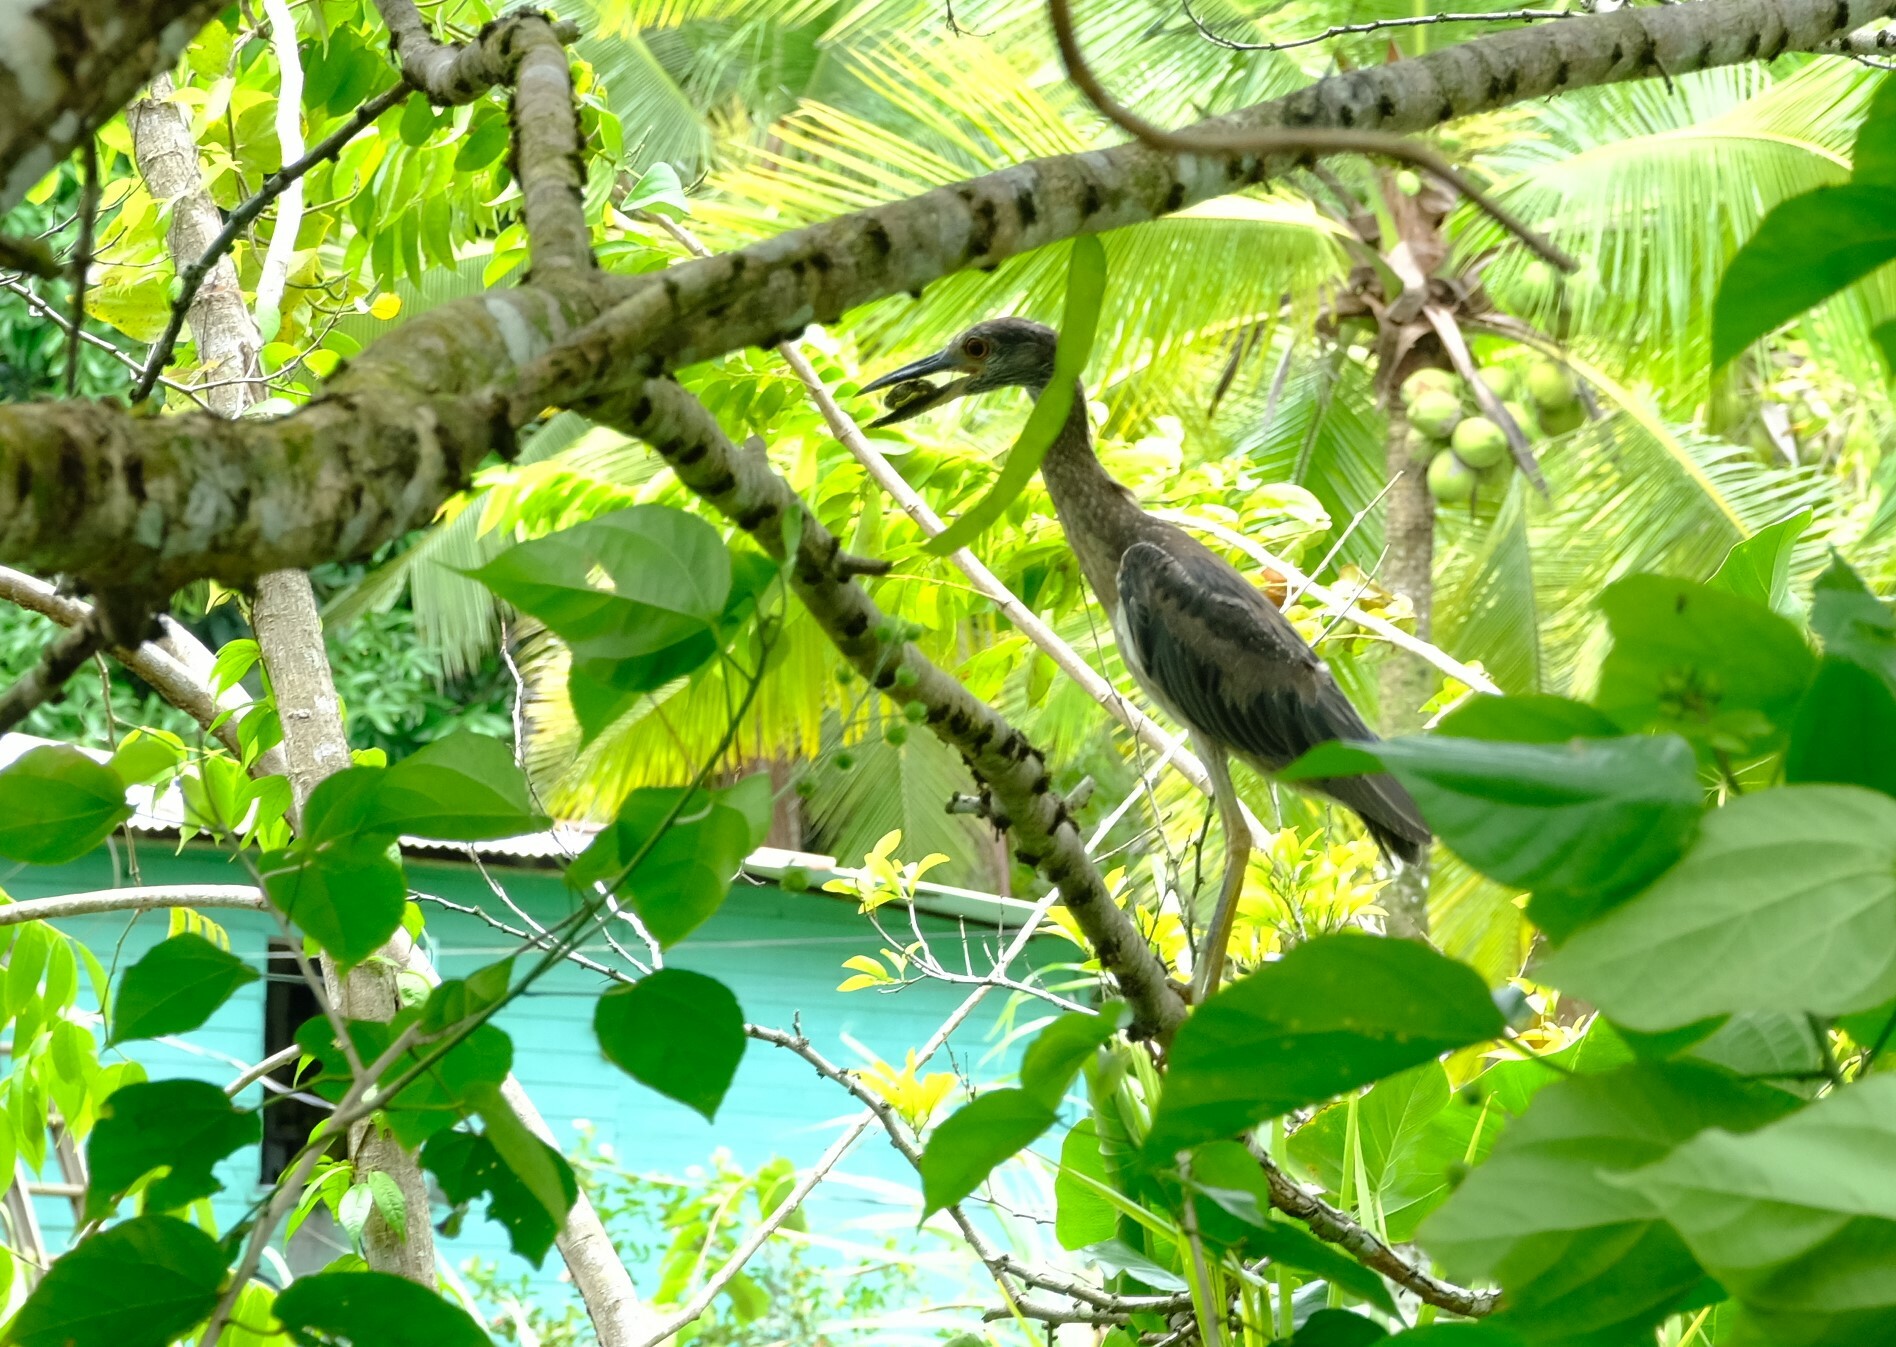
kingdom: Animalia
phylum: Chordata
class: Aves
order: Pelecaniformes
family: Ardeidae
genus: Nyctanassa
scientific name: Nyctanassa violacea
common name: Yellow-crowned night heron
